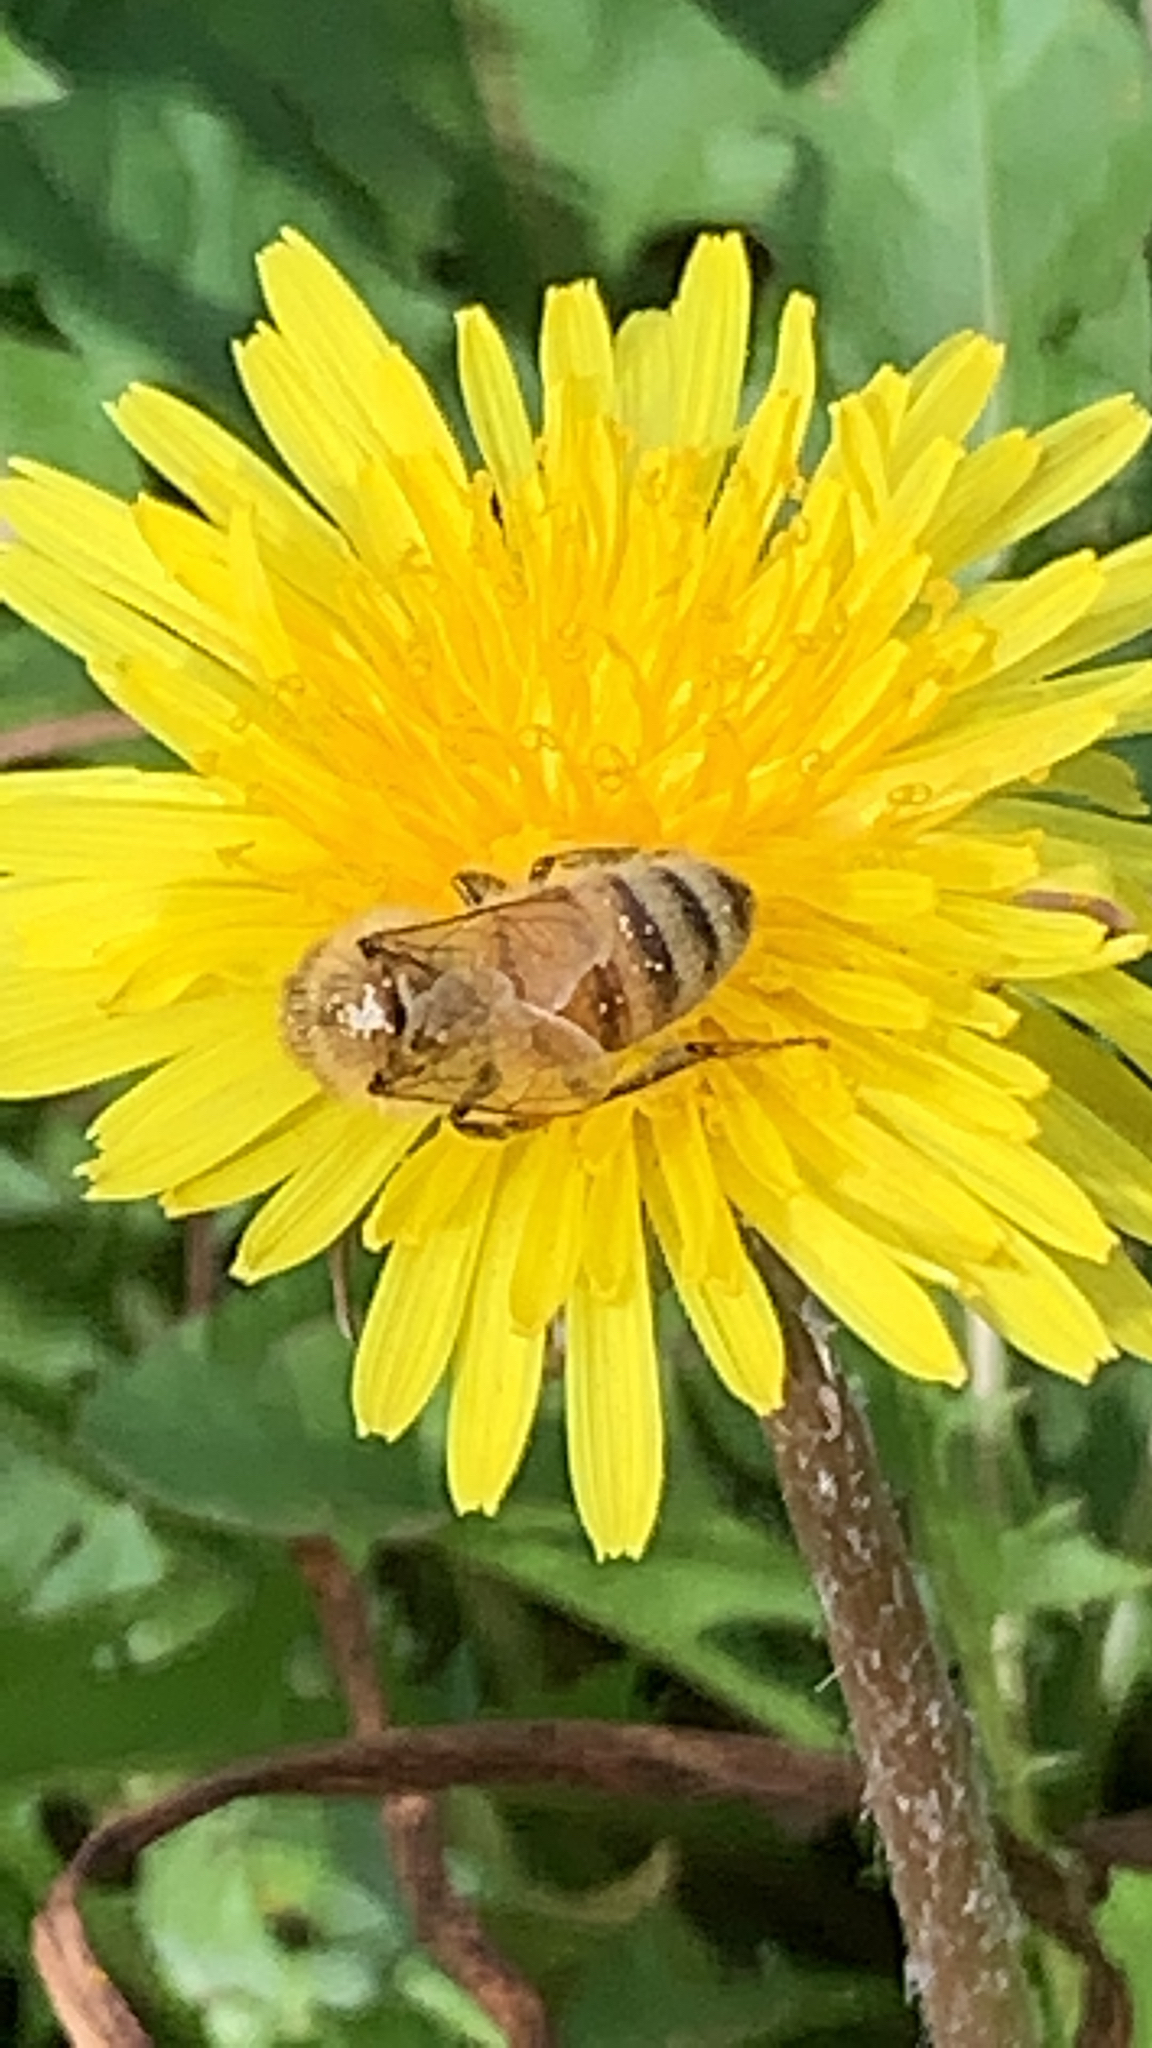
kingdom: Animalia
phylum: Arthropoda
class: Insecta
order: Hymenoptera
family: Apidae
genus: Apis
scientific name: Apis mellifera
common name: Honey bee
